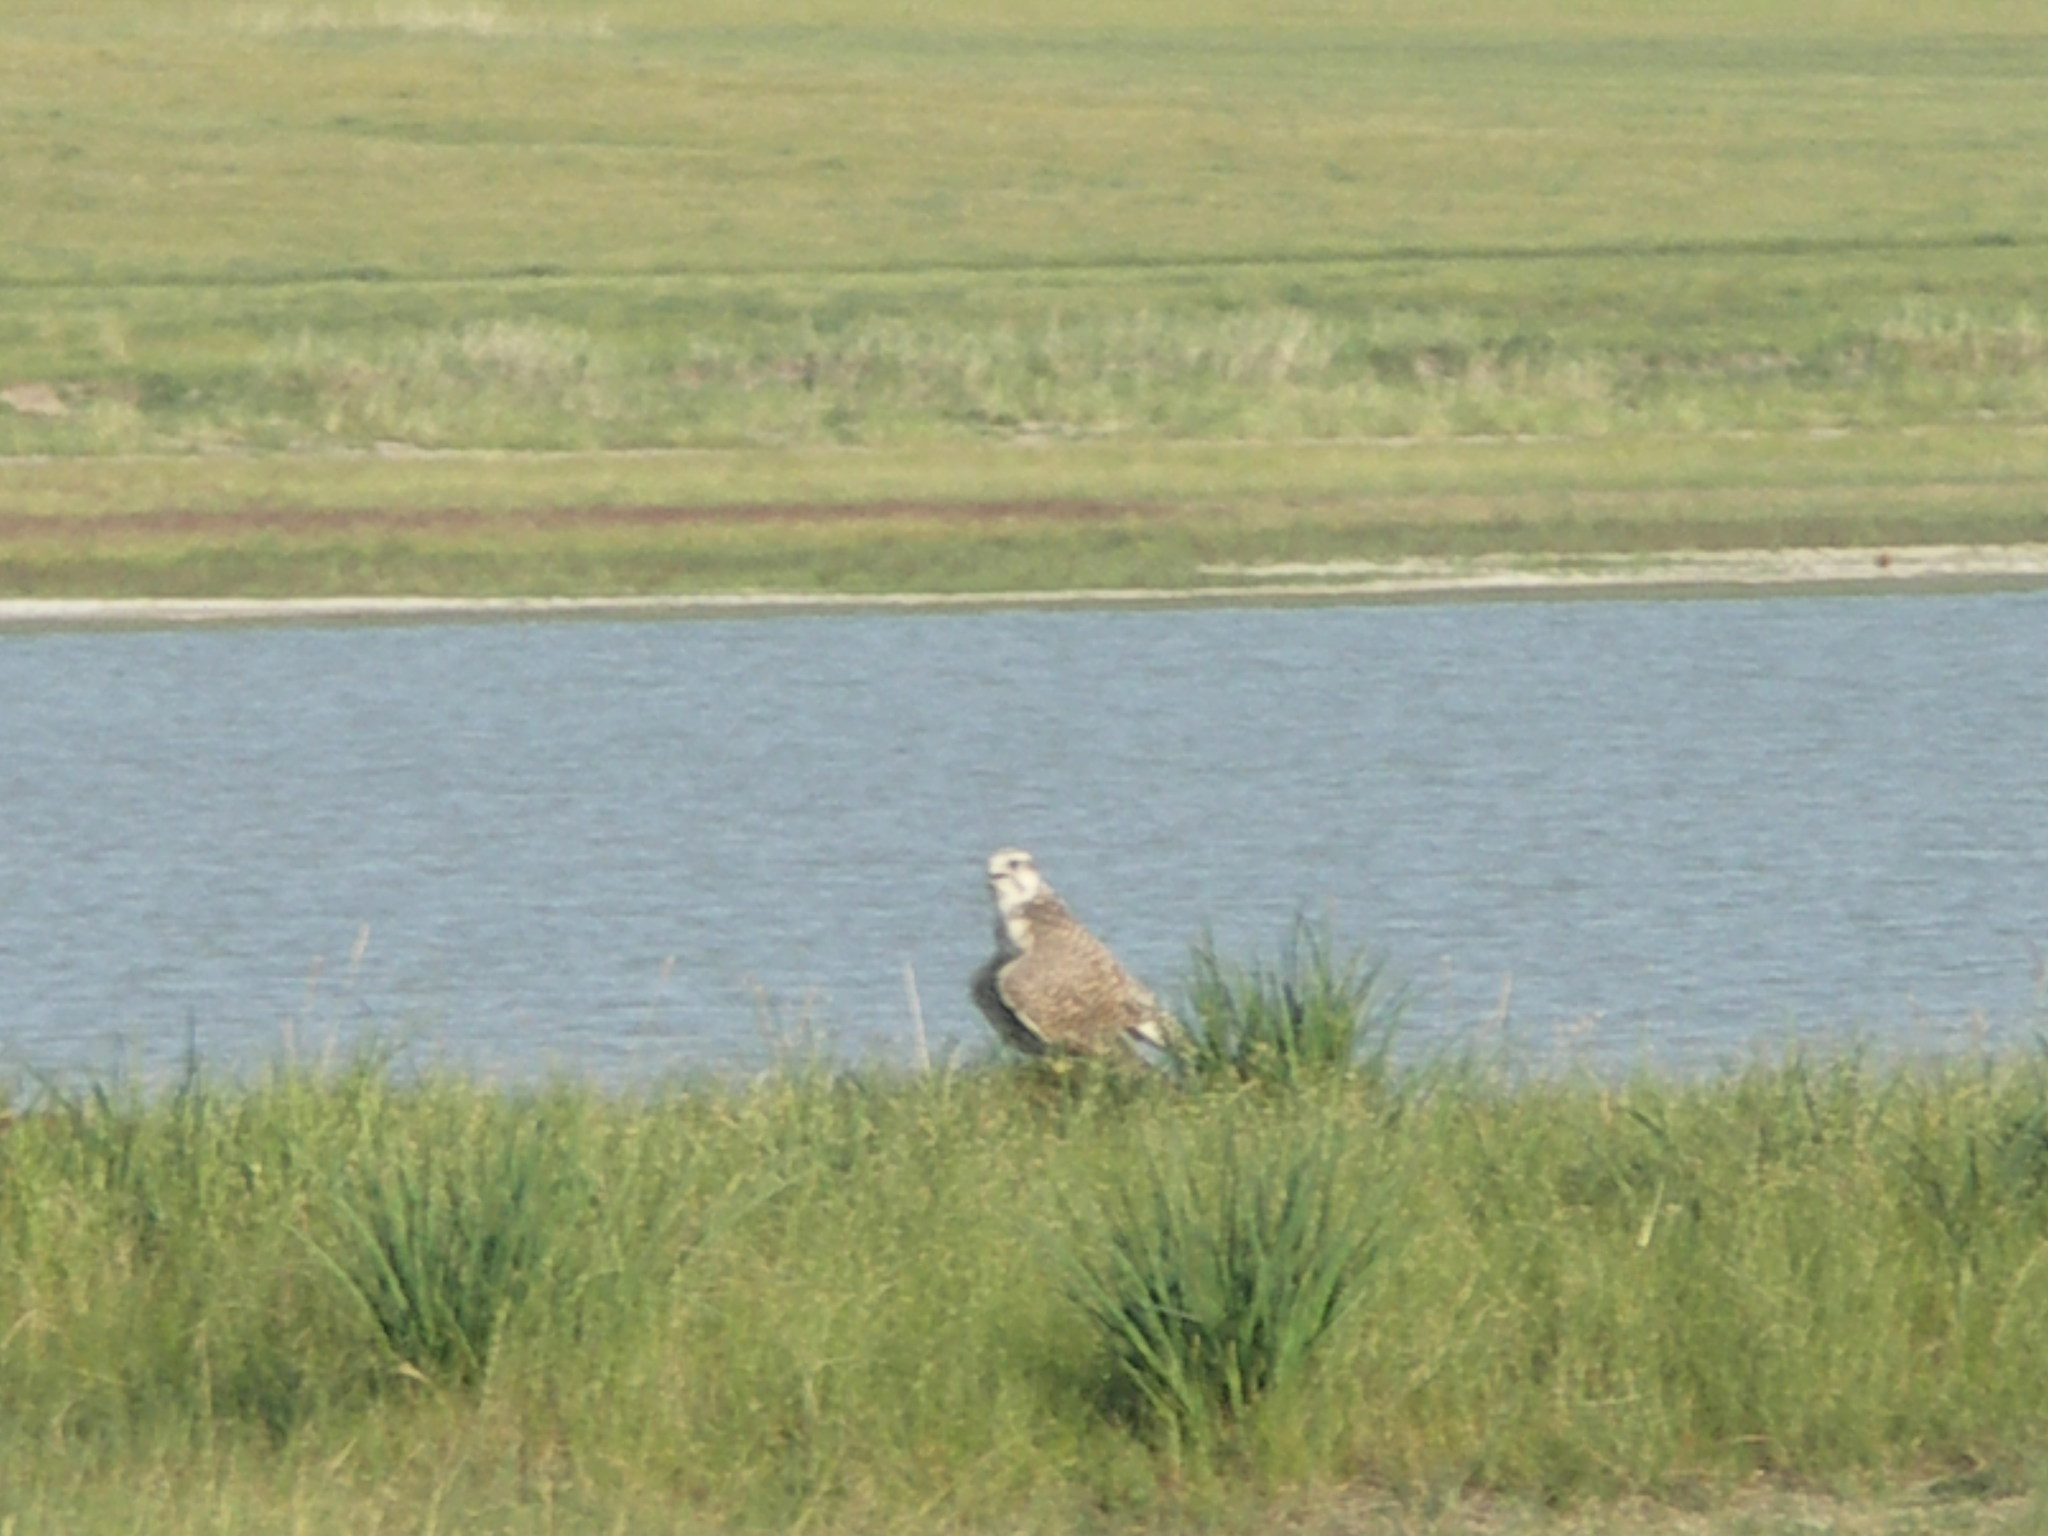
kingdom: Animalia
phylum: Chordata
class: Aves
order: Accipitriformes
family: Accipitridae
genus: Buteo
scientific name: Buteo lagopus
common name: Rough-legged buzzard
